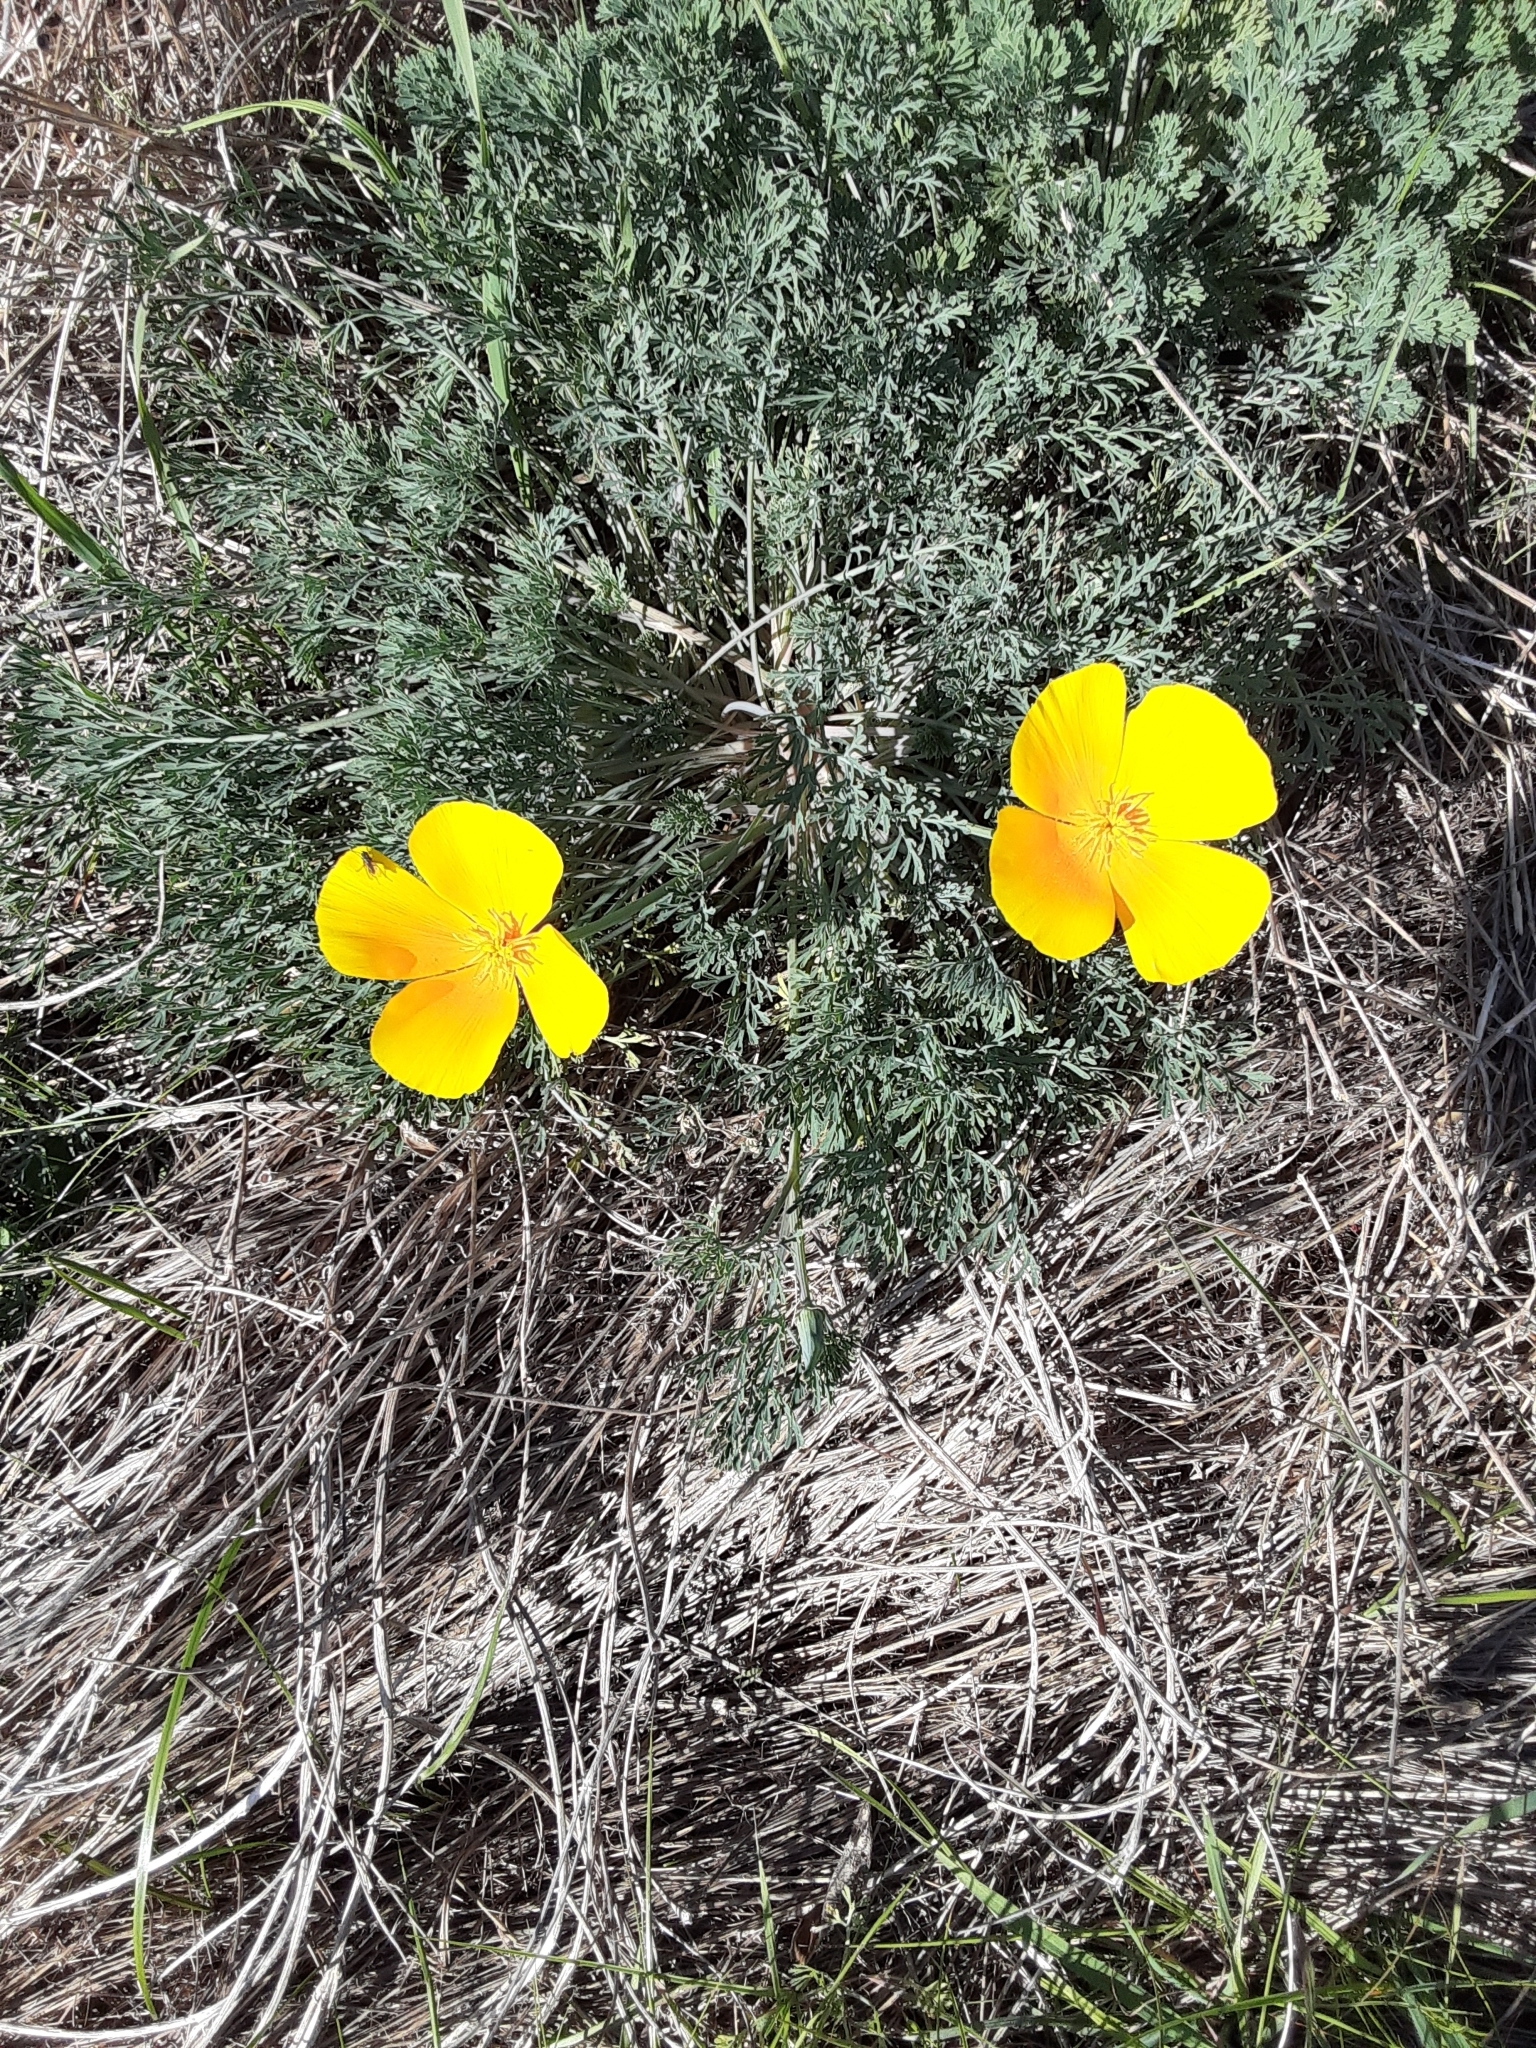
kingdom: Plantae
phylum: Tracheophyta
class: Magnoliopsida
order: Ranunculales
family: Papaveraceae
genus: Eschscholzia
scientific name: Eschscholzia californica
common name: California poppy
